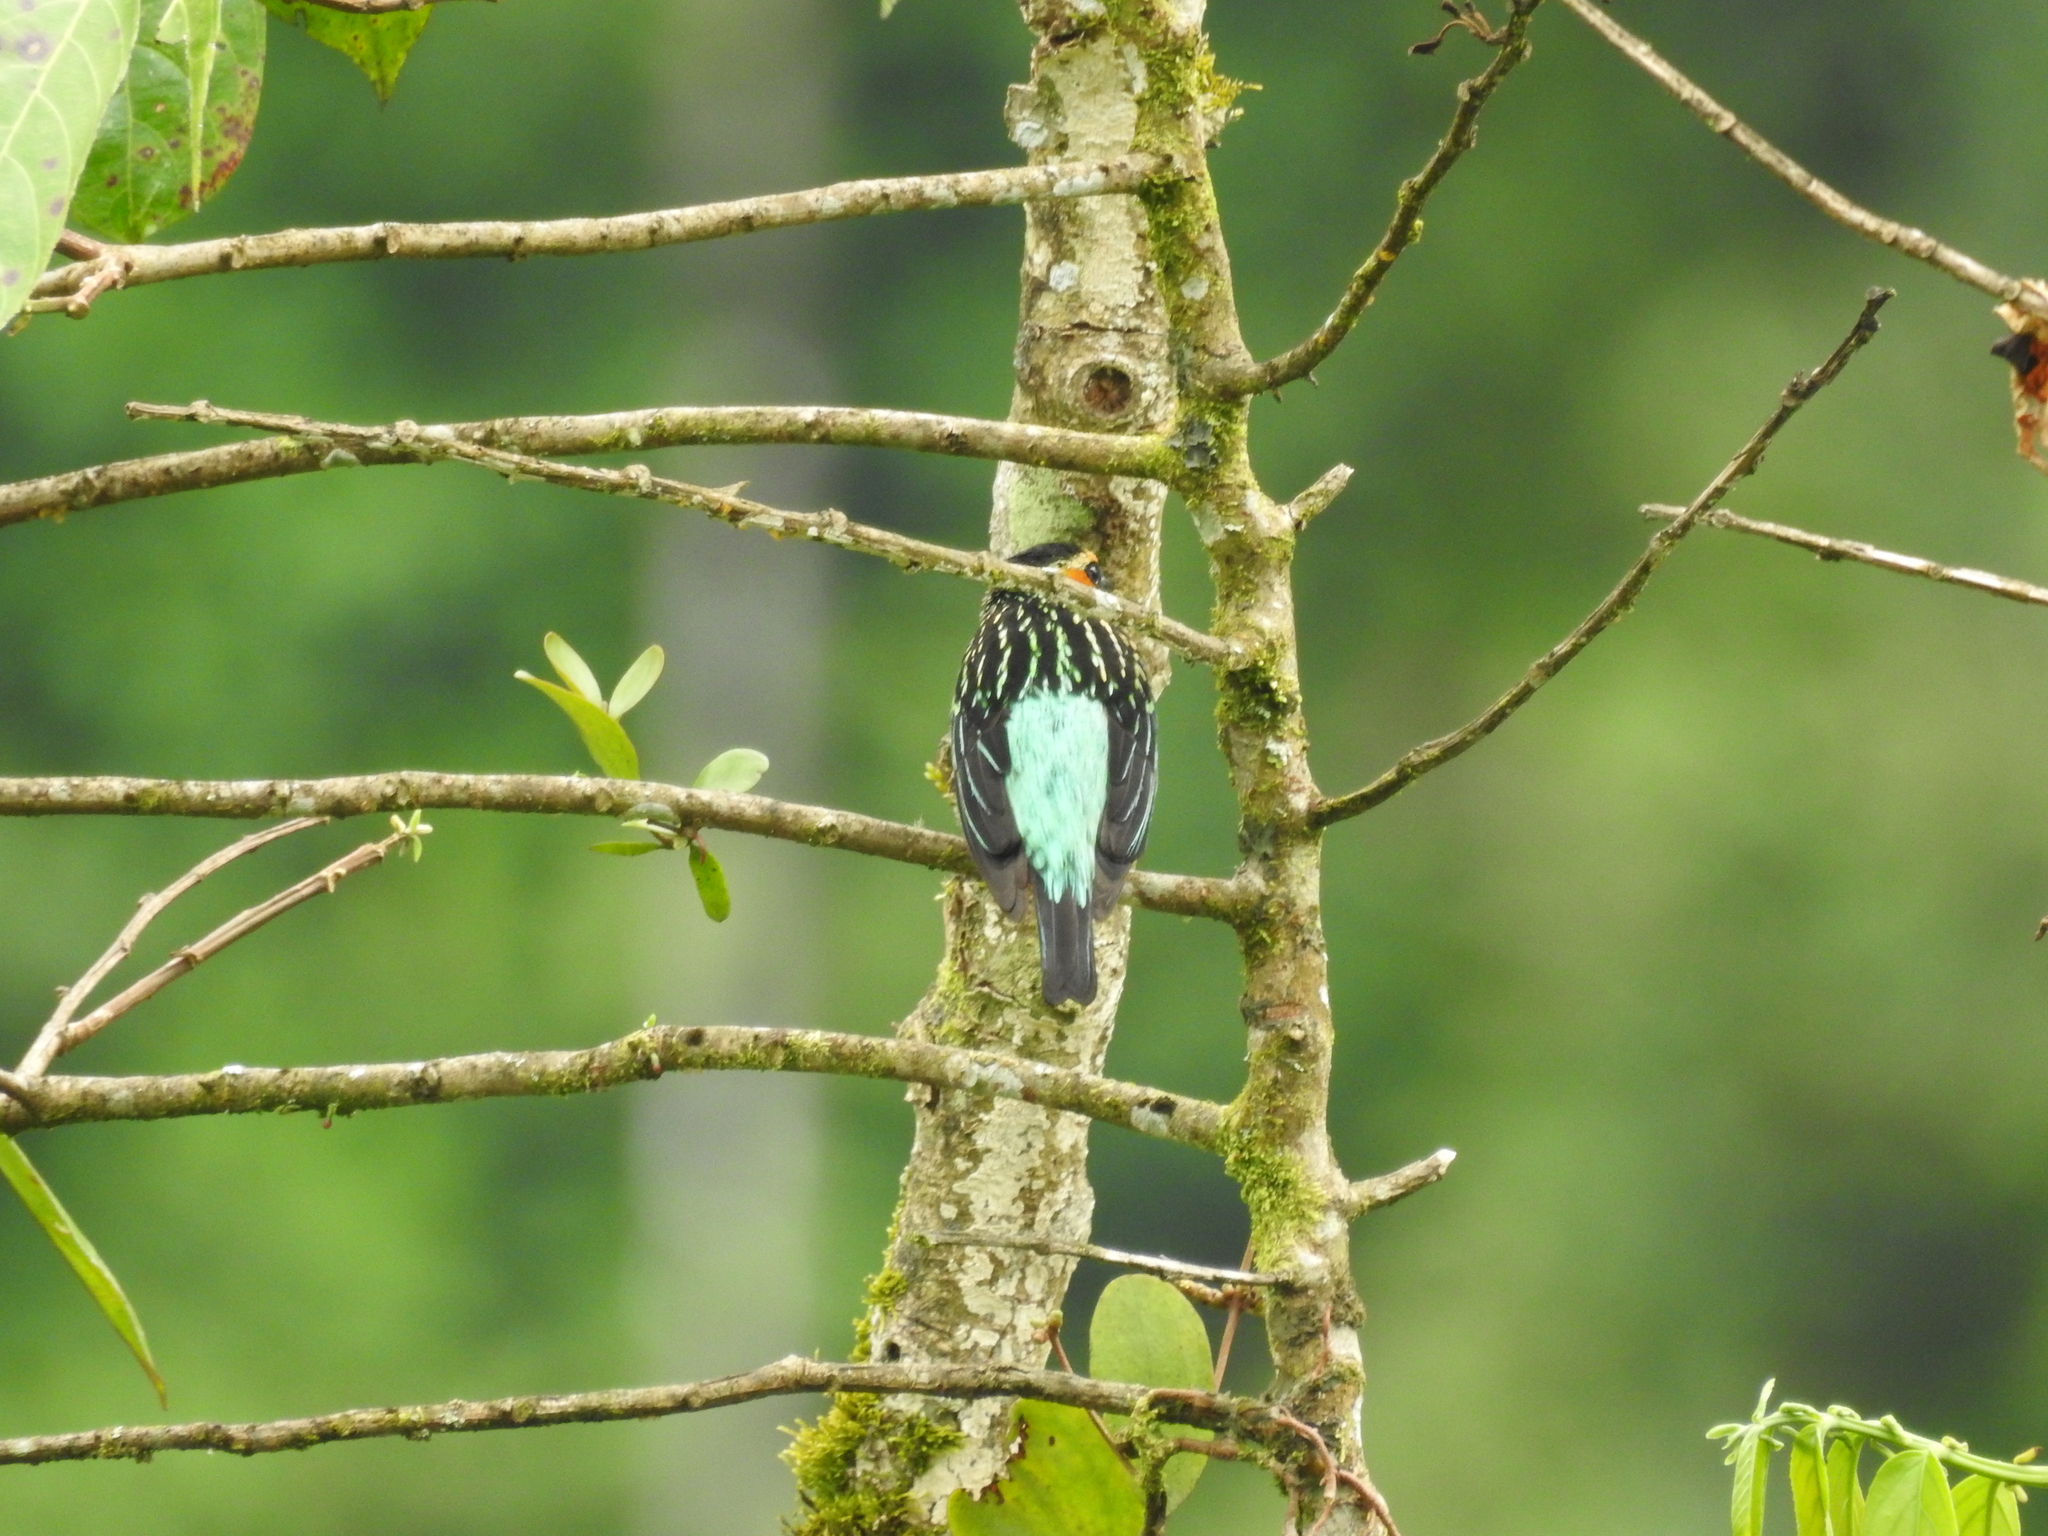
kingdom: Animalia
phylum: Chordata
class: Aves
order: Passeriformes
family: Thraupidae
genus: Tangara
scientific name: Tangara chrysotis
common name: Golden-eared tanager
